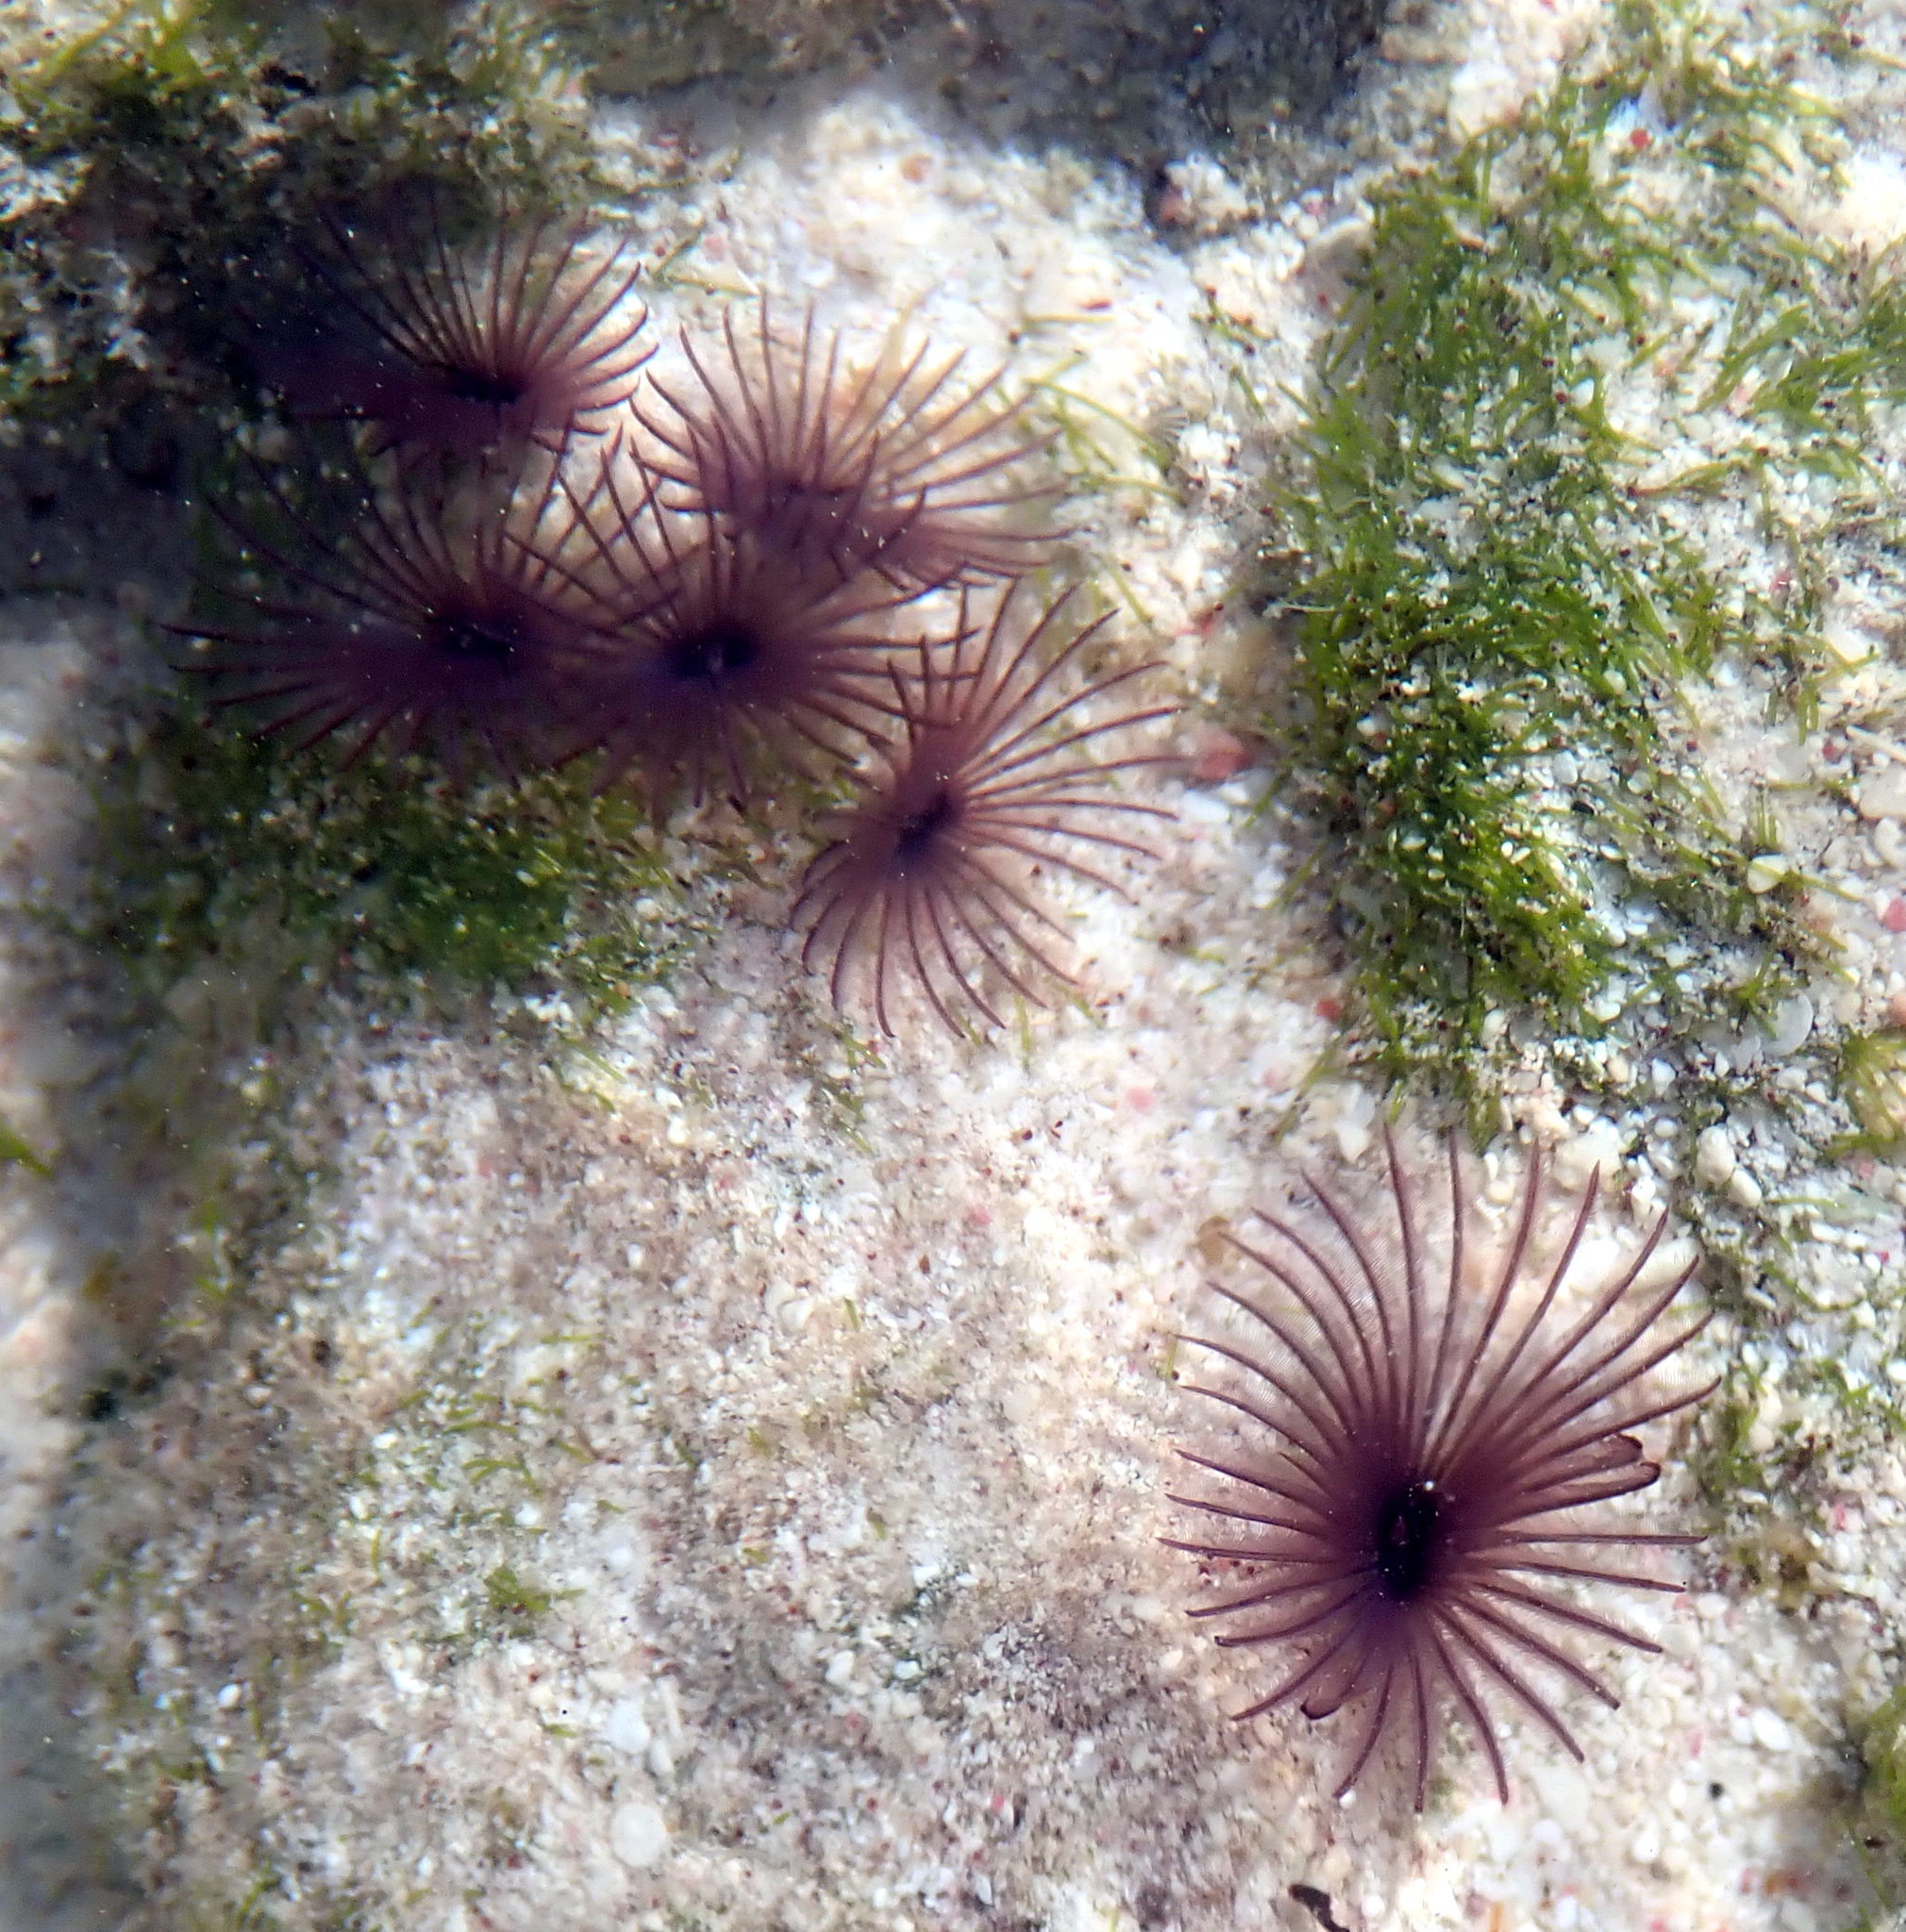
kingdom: Animalia
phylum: Annelida
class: Polychaeta
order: Sabellida
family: Sabellidae
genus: Bispira
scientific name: Bispira melanostigma
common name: Variegated feather duster
